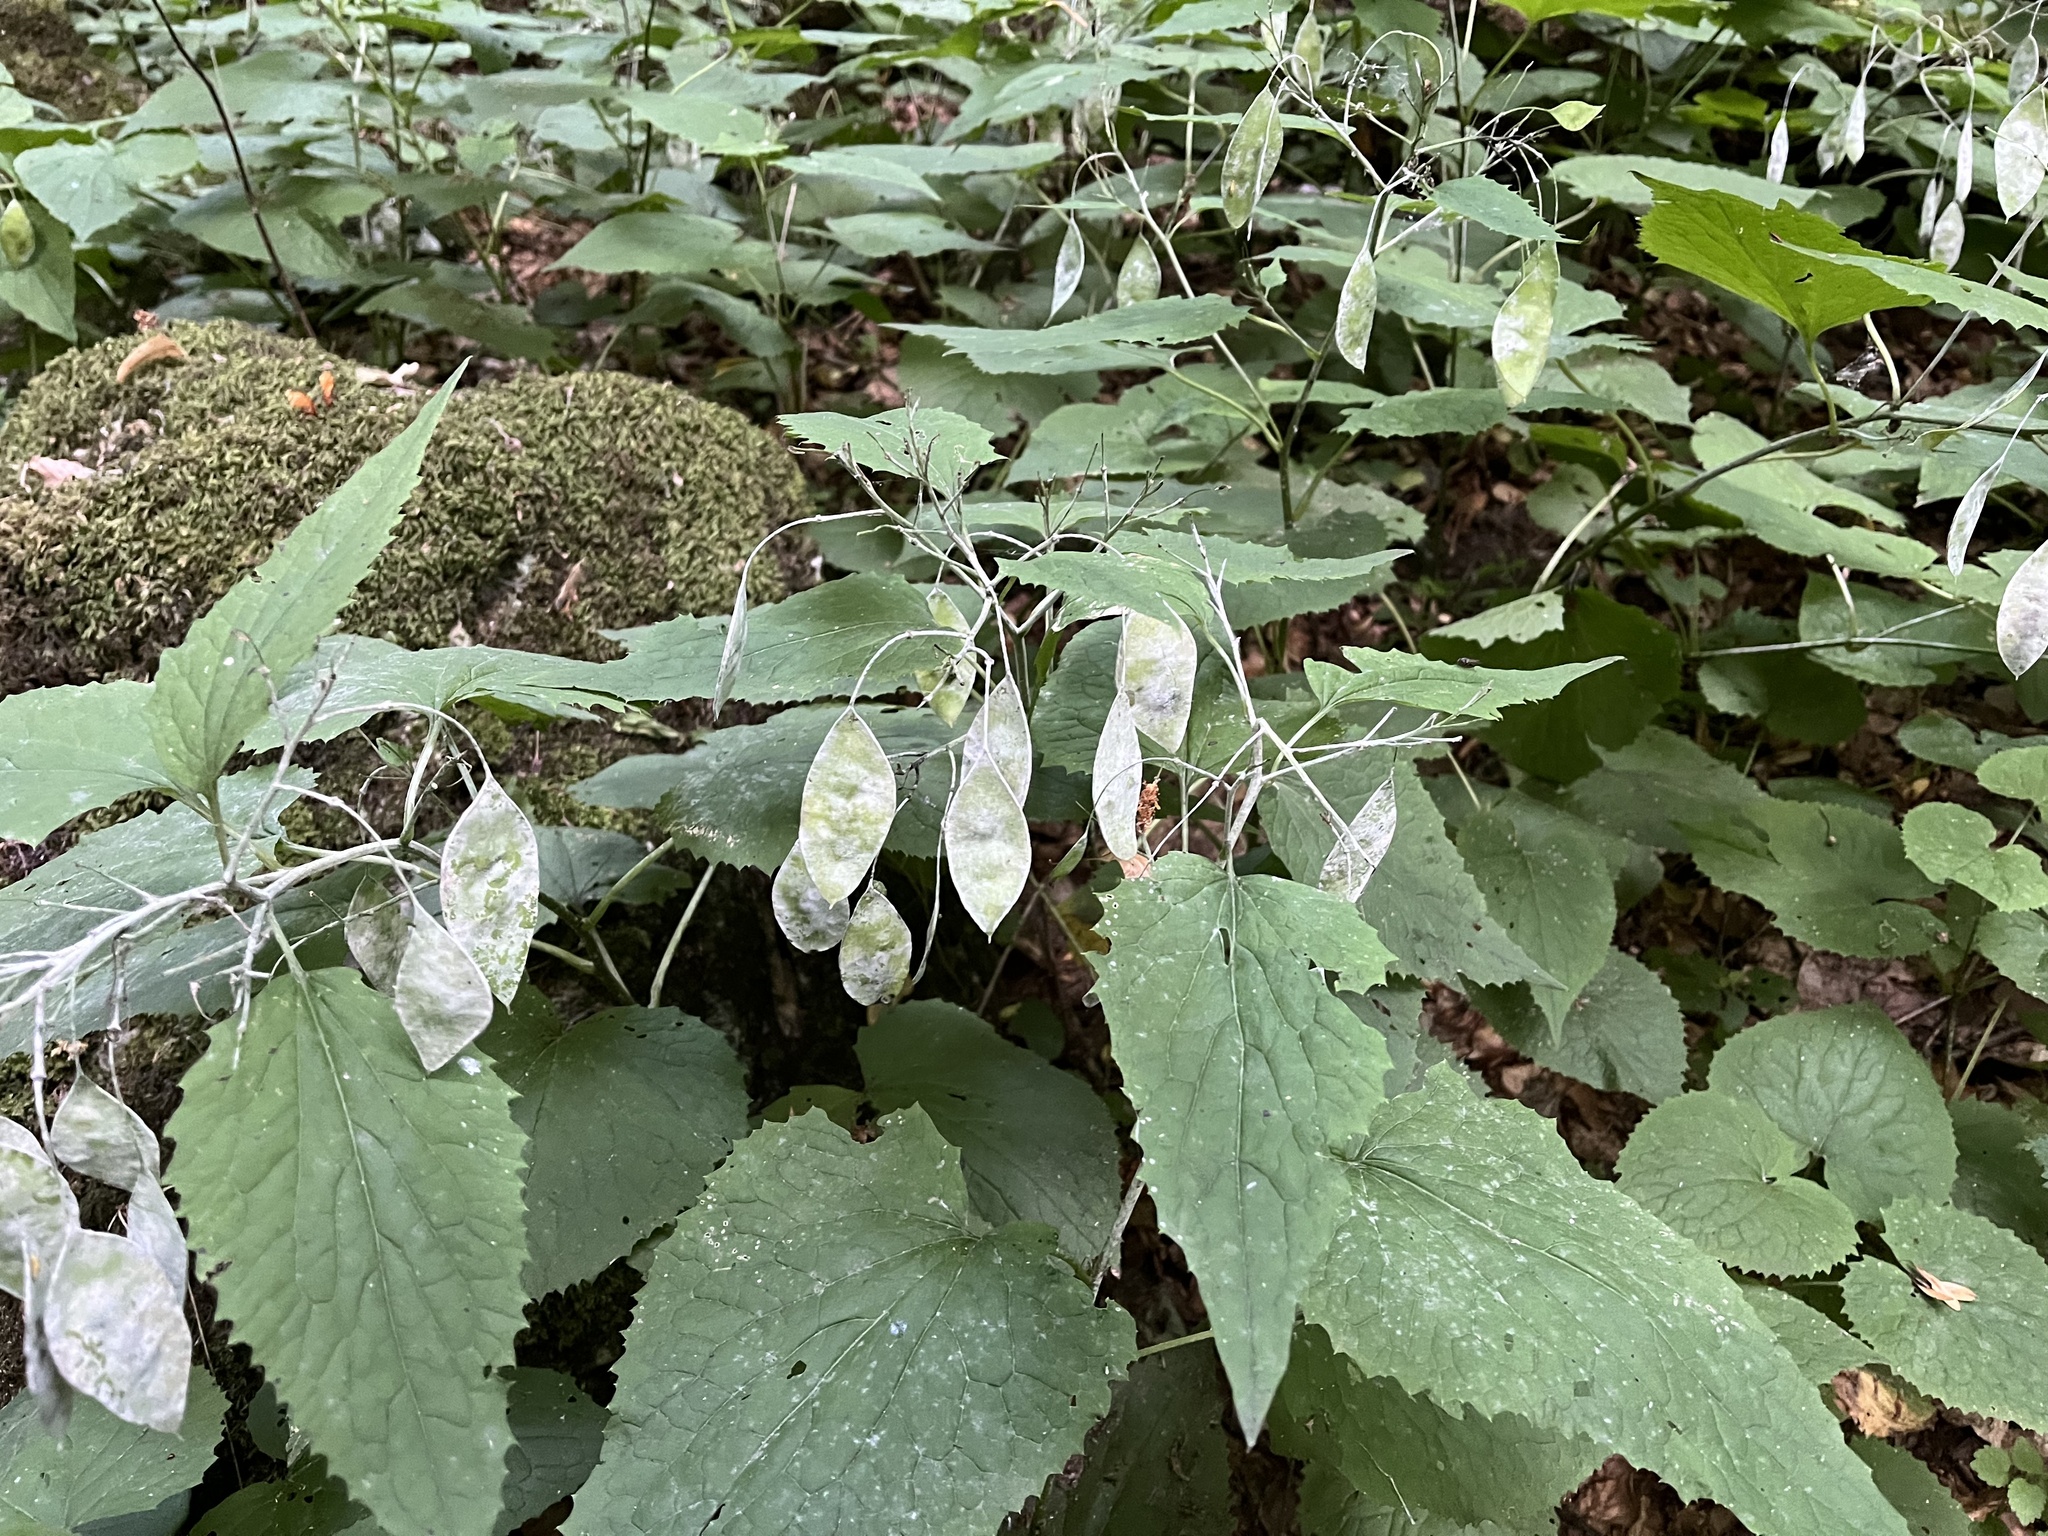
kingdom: Plantae
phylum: Tracheophyta
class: Magnoliopsida
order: Brassicales
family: Brassicaceae
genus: Lunaria
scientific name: Lunaria rediviva
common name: Perennial honesty
